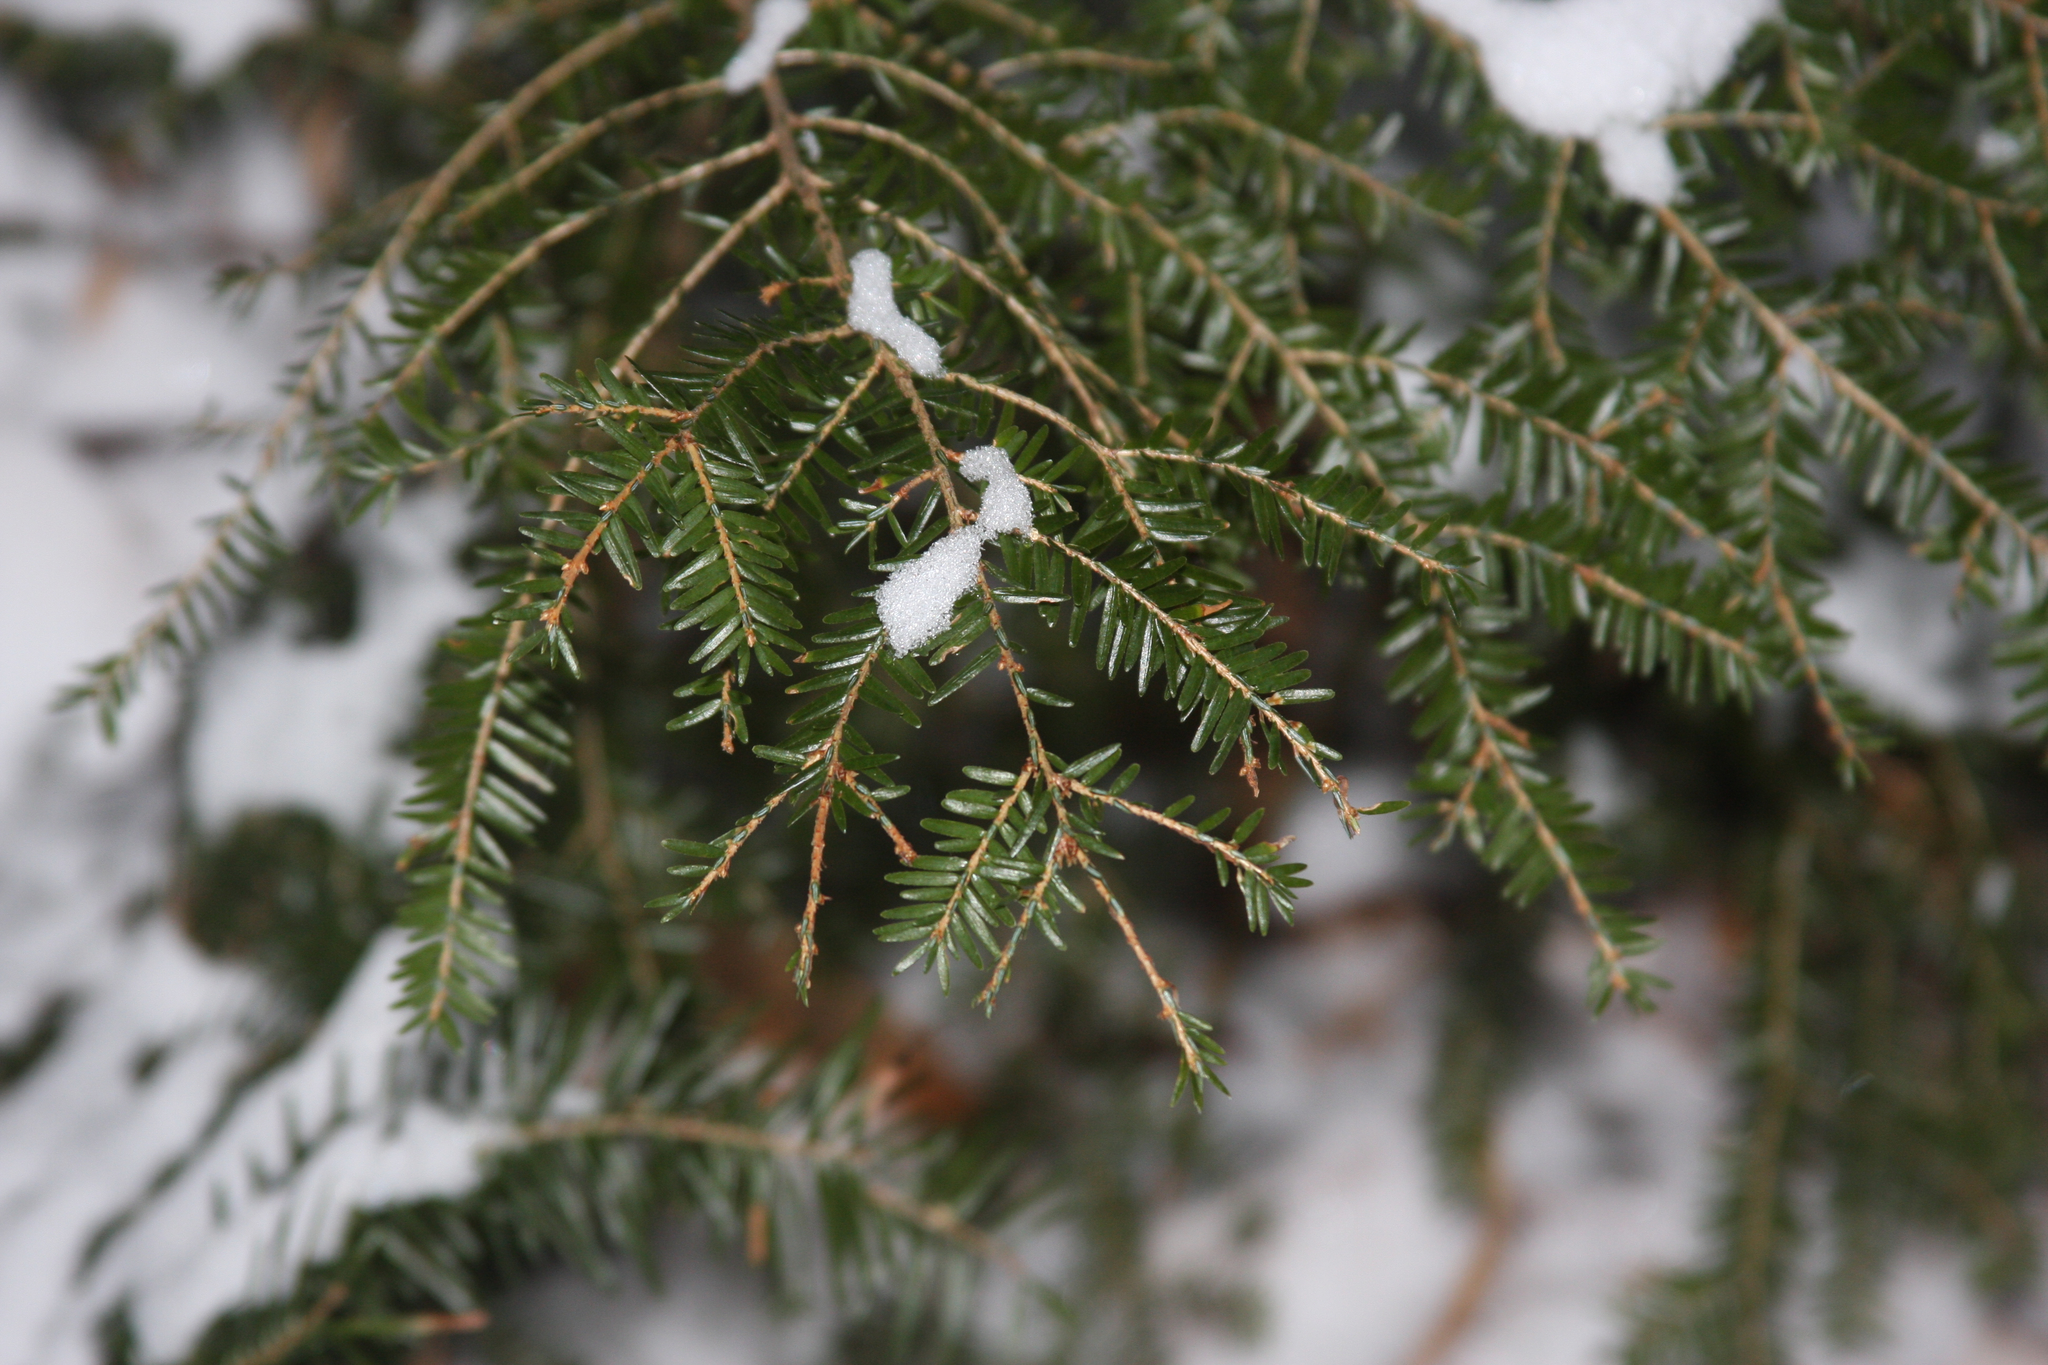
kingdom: Plantae
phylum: Tracheophyta
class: Pinopsida
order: Pinales
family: Pinaceae
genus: Tsuga
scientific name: Tsuga canadensis
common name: Eastern hemlock
